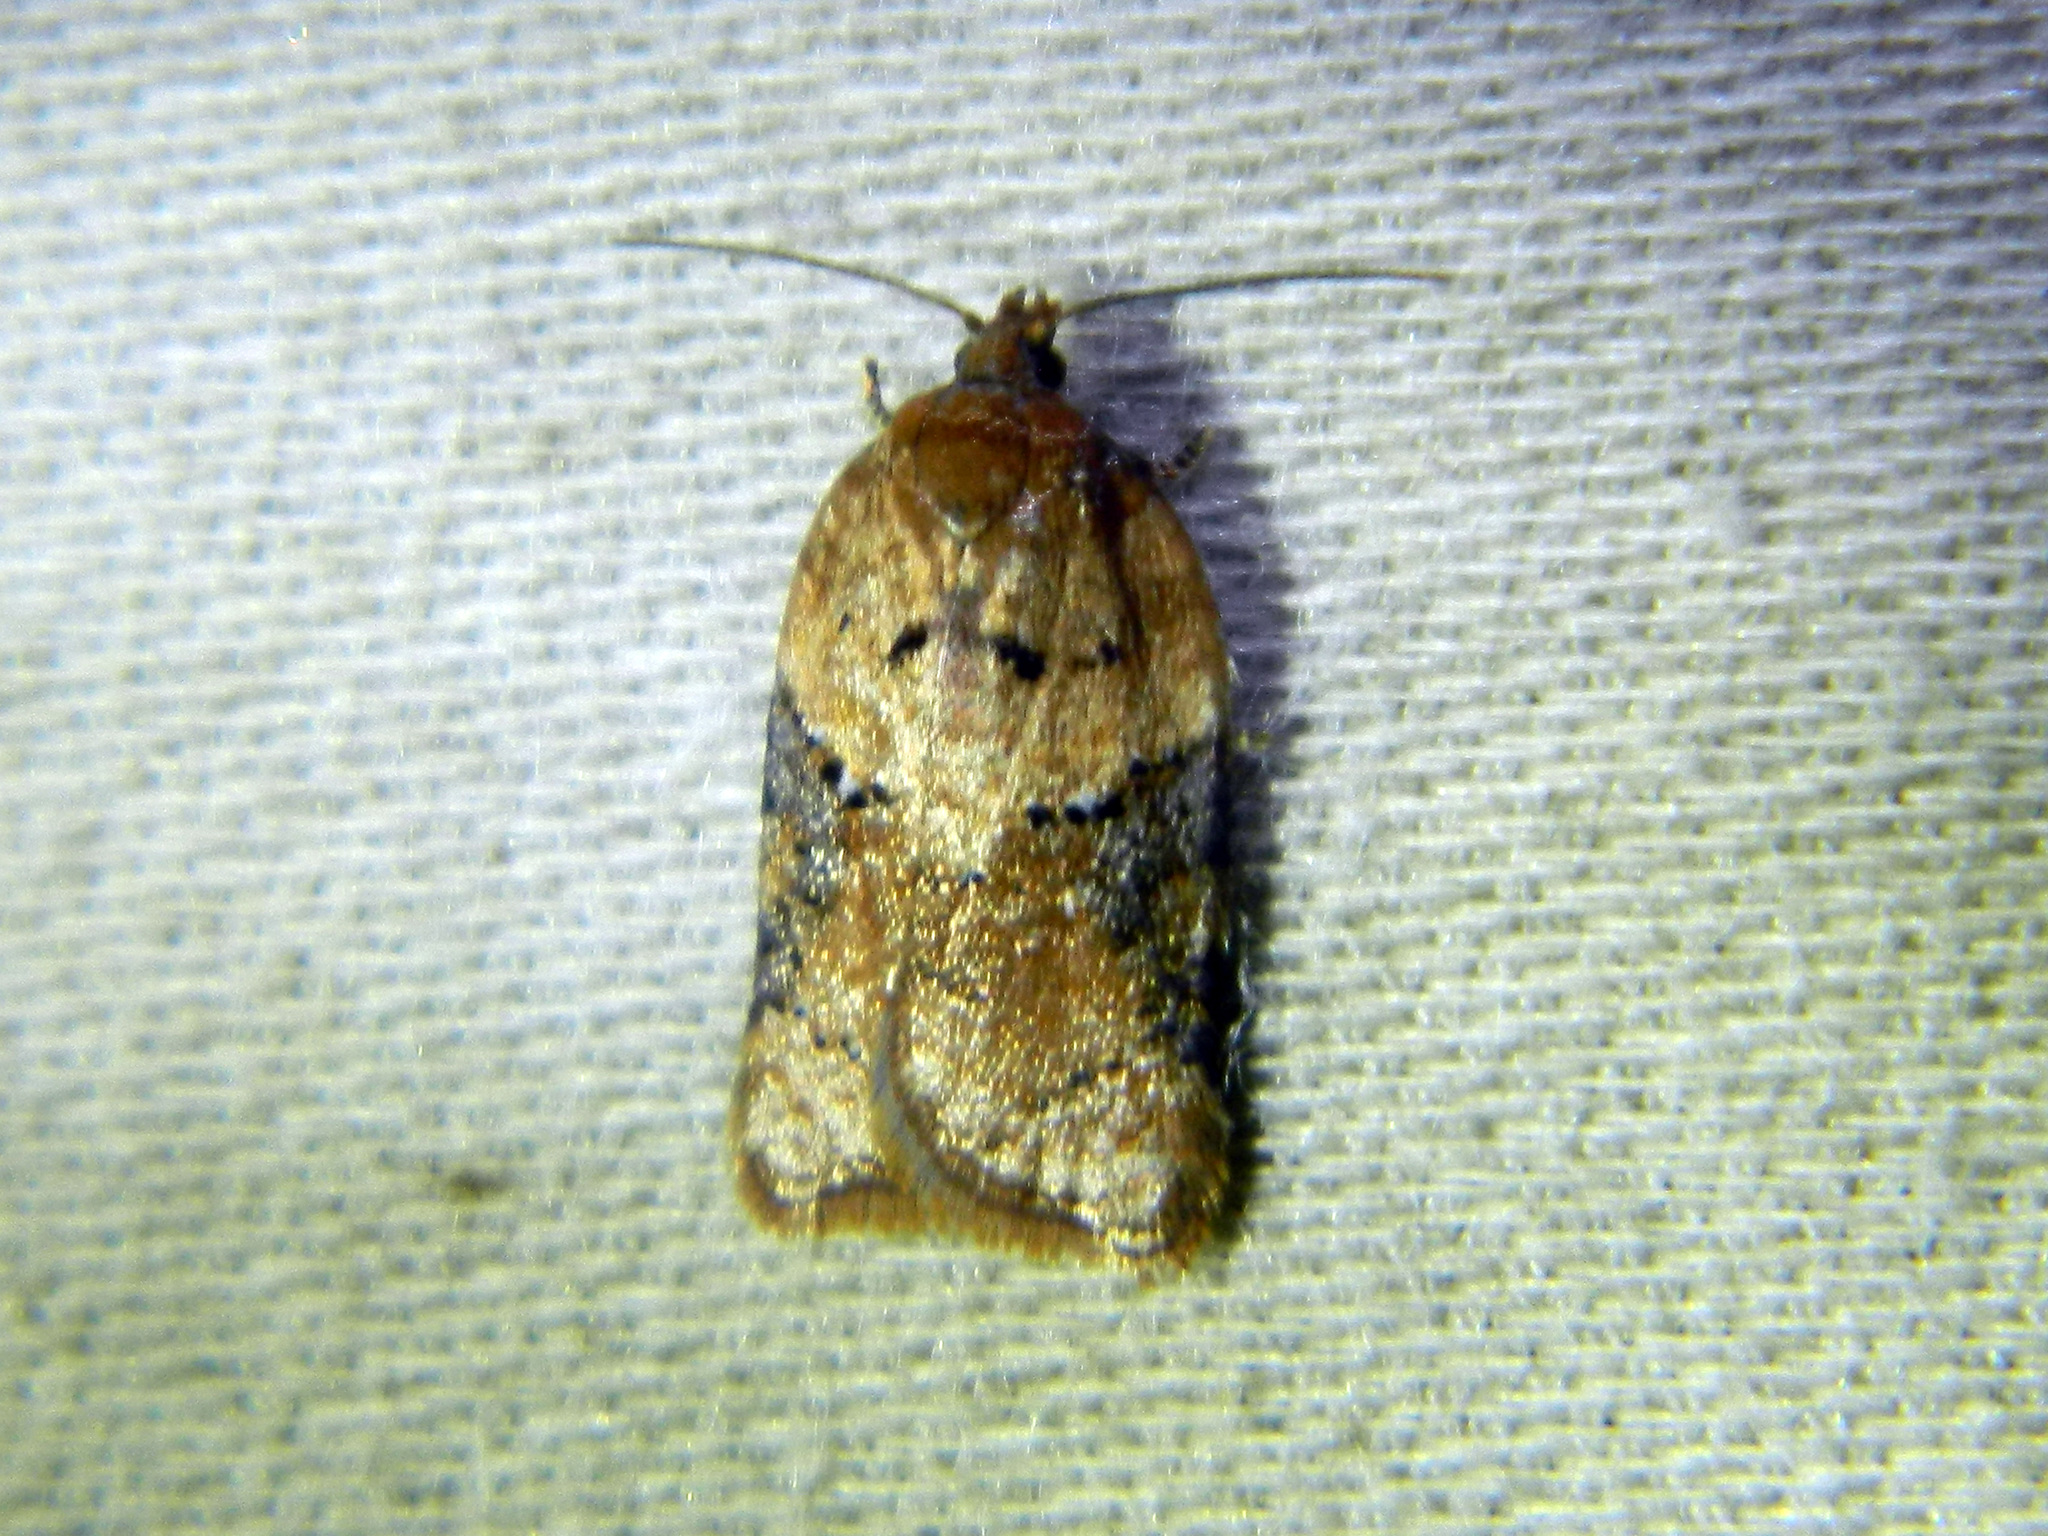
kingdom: Animalia
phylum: Arthropoda
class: Insecta
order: Lepidoptera
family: Tortricidae
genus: Acleris
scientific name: Acleris braunana
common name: Alder leafroller
